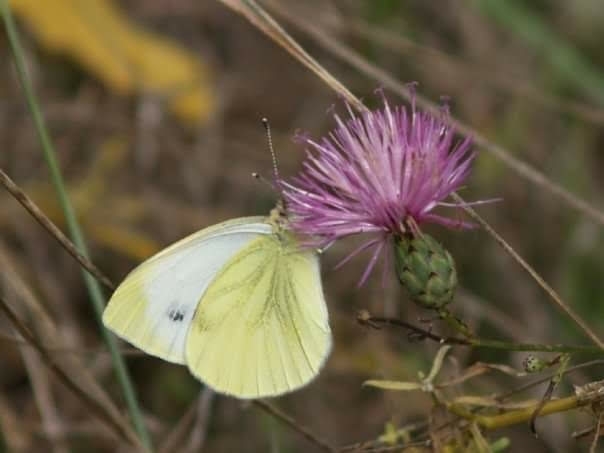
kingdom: Animalia
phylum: Arthropoda
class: Insecta
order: Lepidoptera
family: Pieridae
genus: Pieris
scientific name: Pieris napi
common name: Green-veined white
